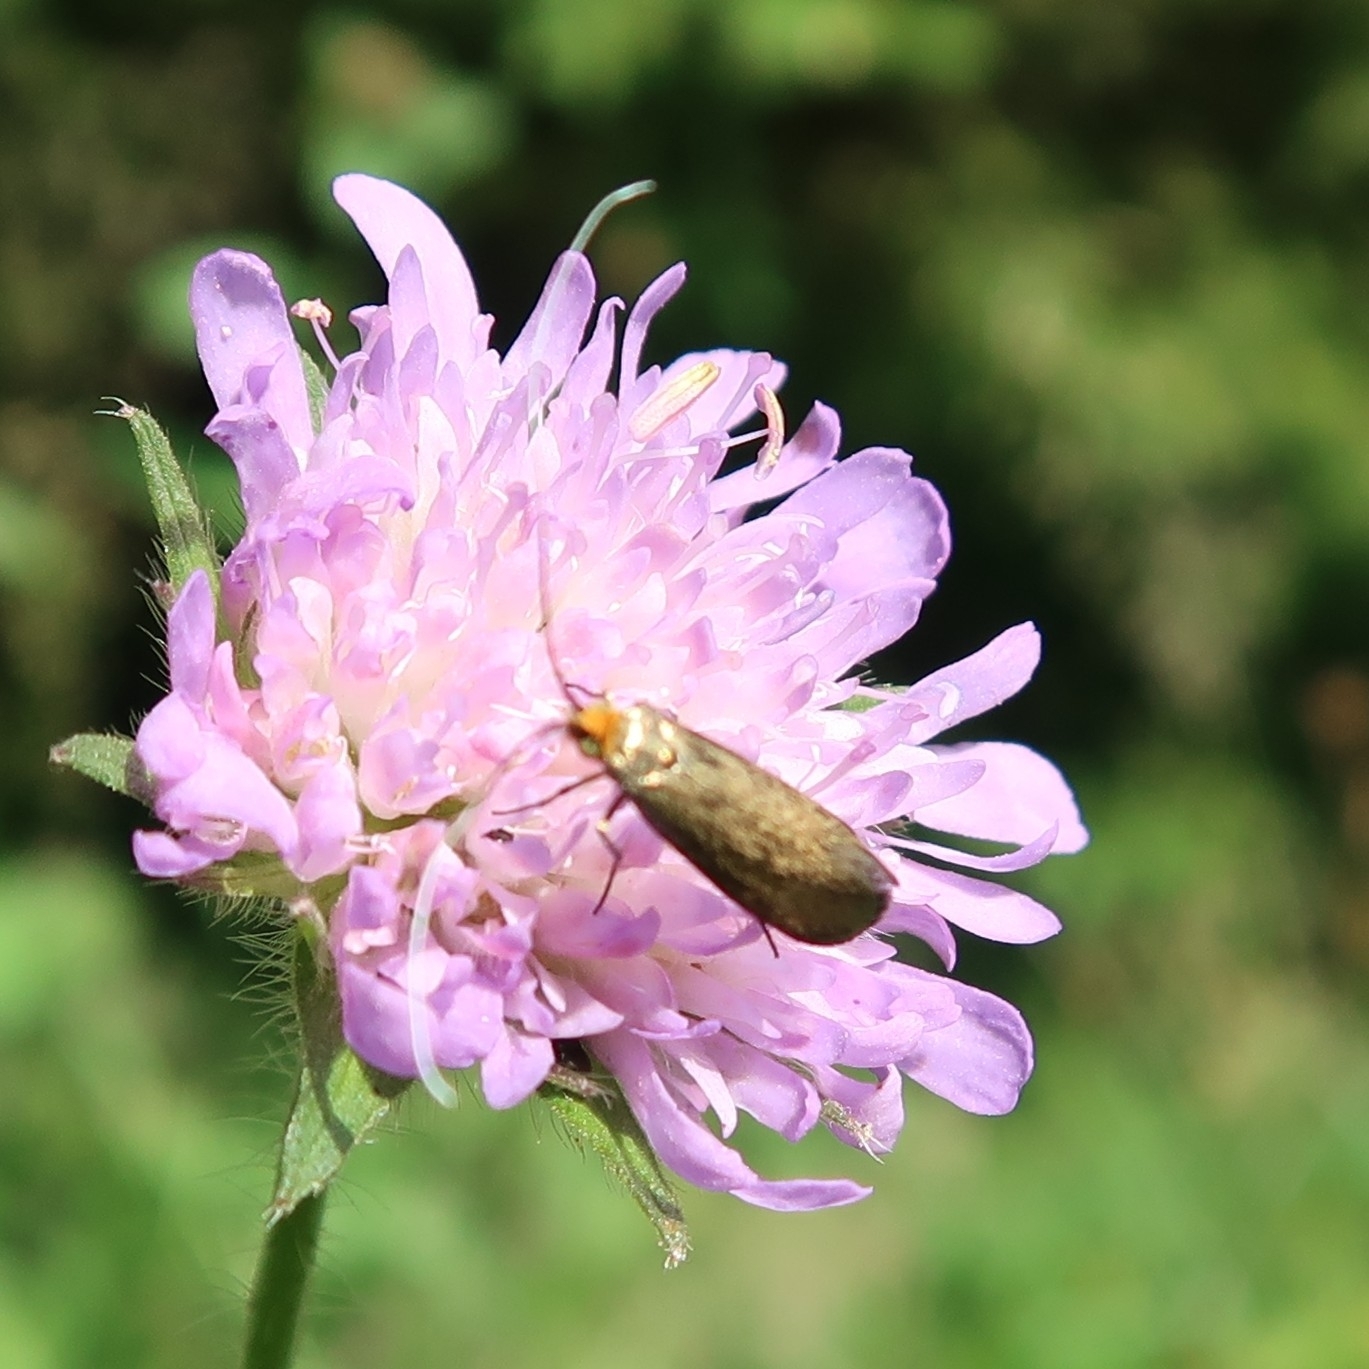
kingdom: Animalia
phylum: Arthropoda
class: Insecta
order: Lepidoptera
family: Adelidae
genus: Nemophora
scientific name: Nemophora metallica
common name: Brassy long-horn
